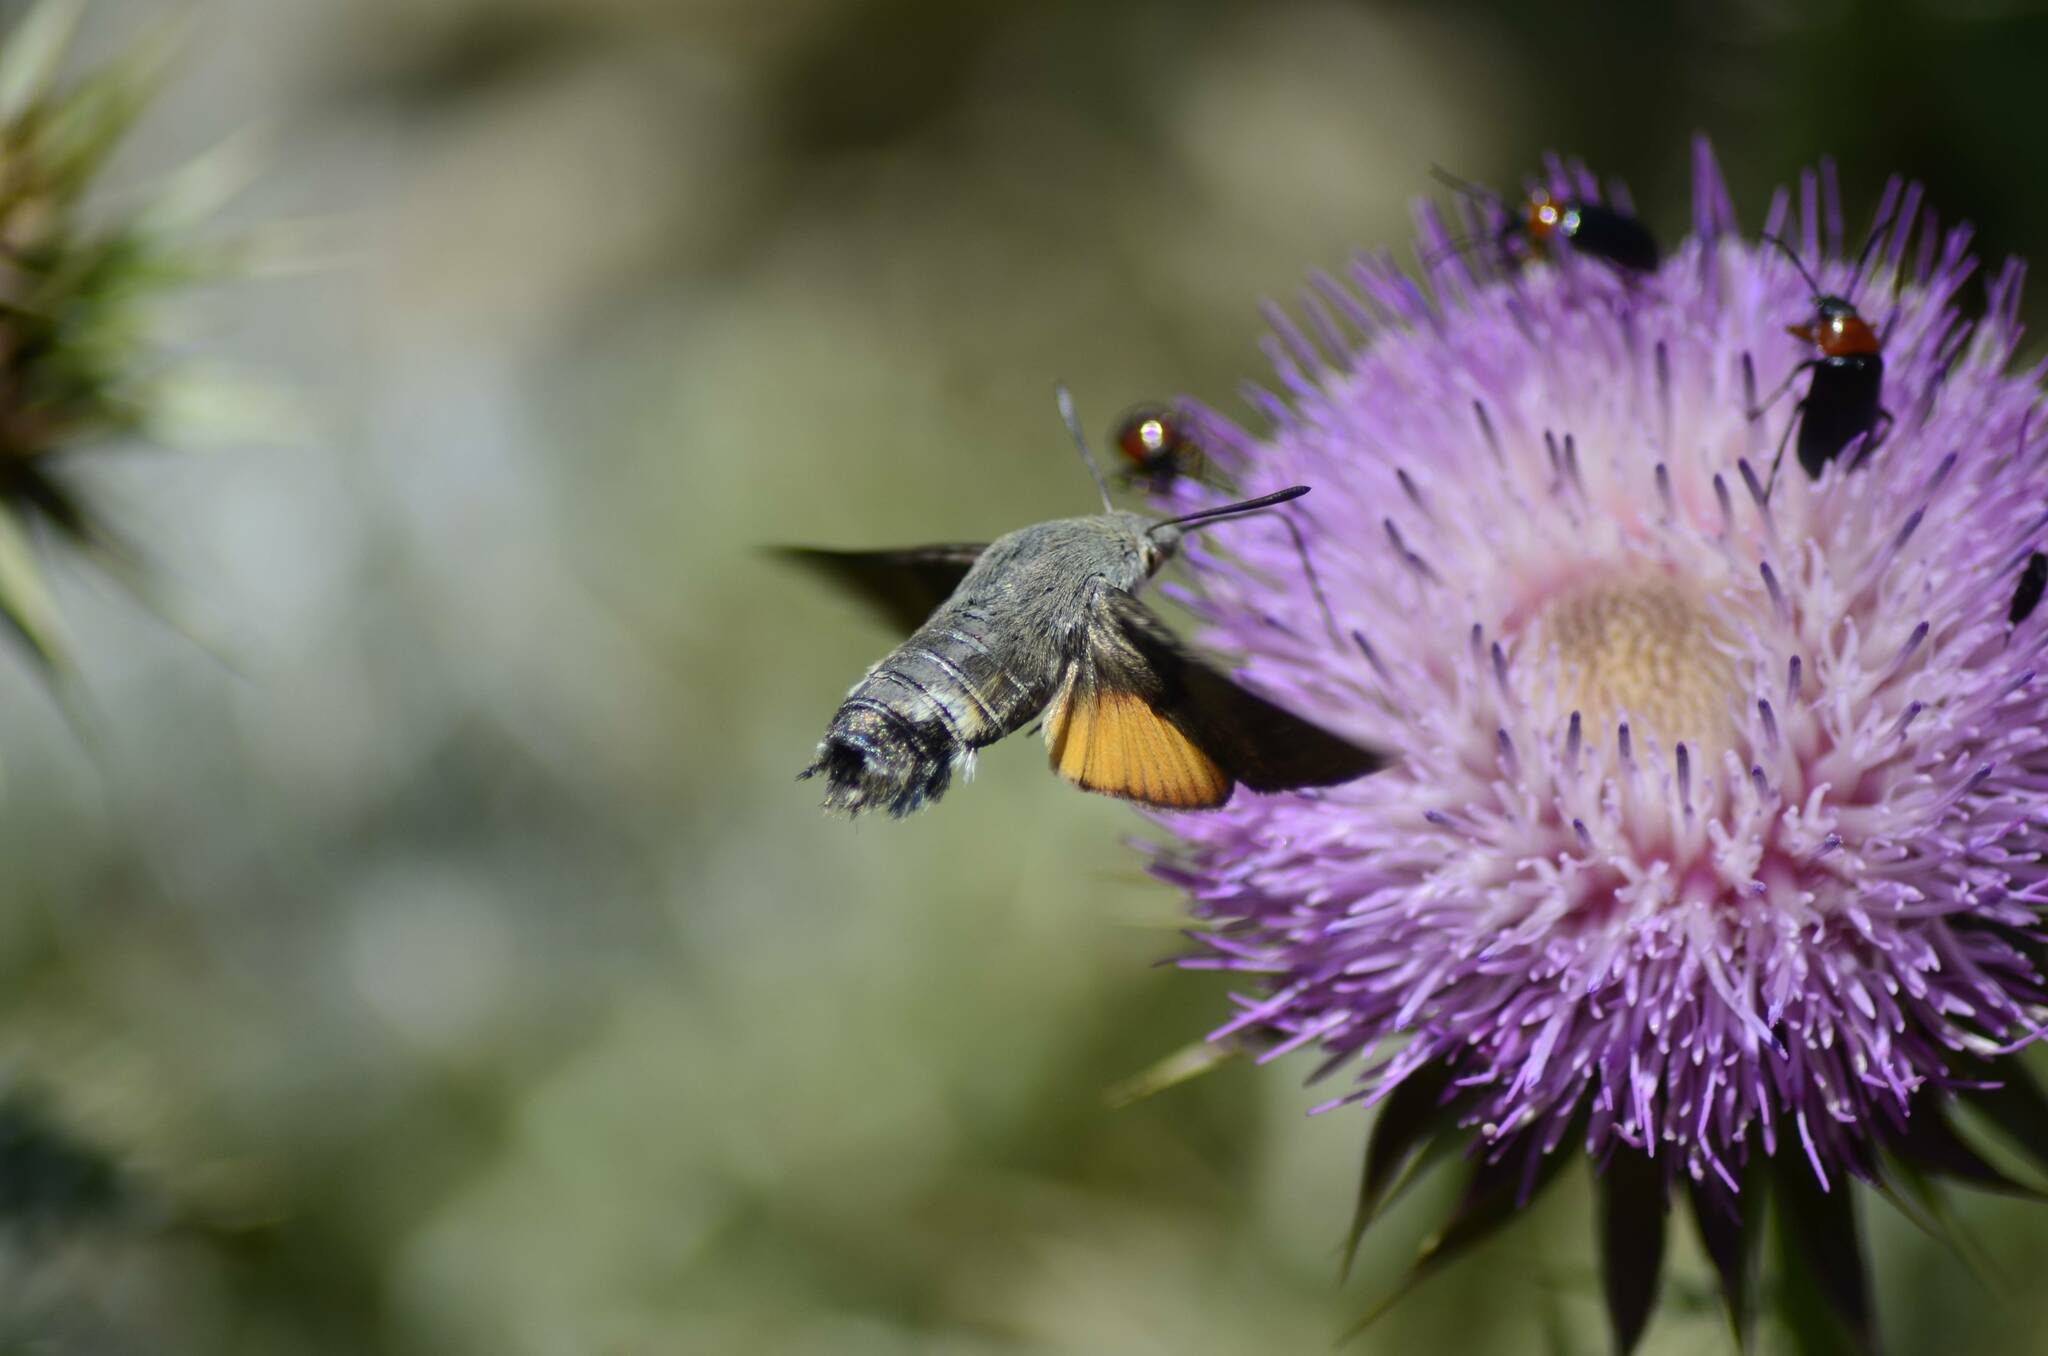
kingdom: Animalia
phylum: Arthropoda
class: Insecta
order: Lepidoptera
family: Sphingidae
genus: Macroglossum
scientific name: Macroglossum stellatarum
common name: Humming-bird hawk-moth
